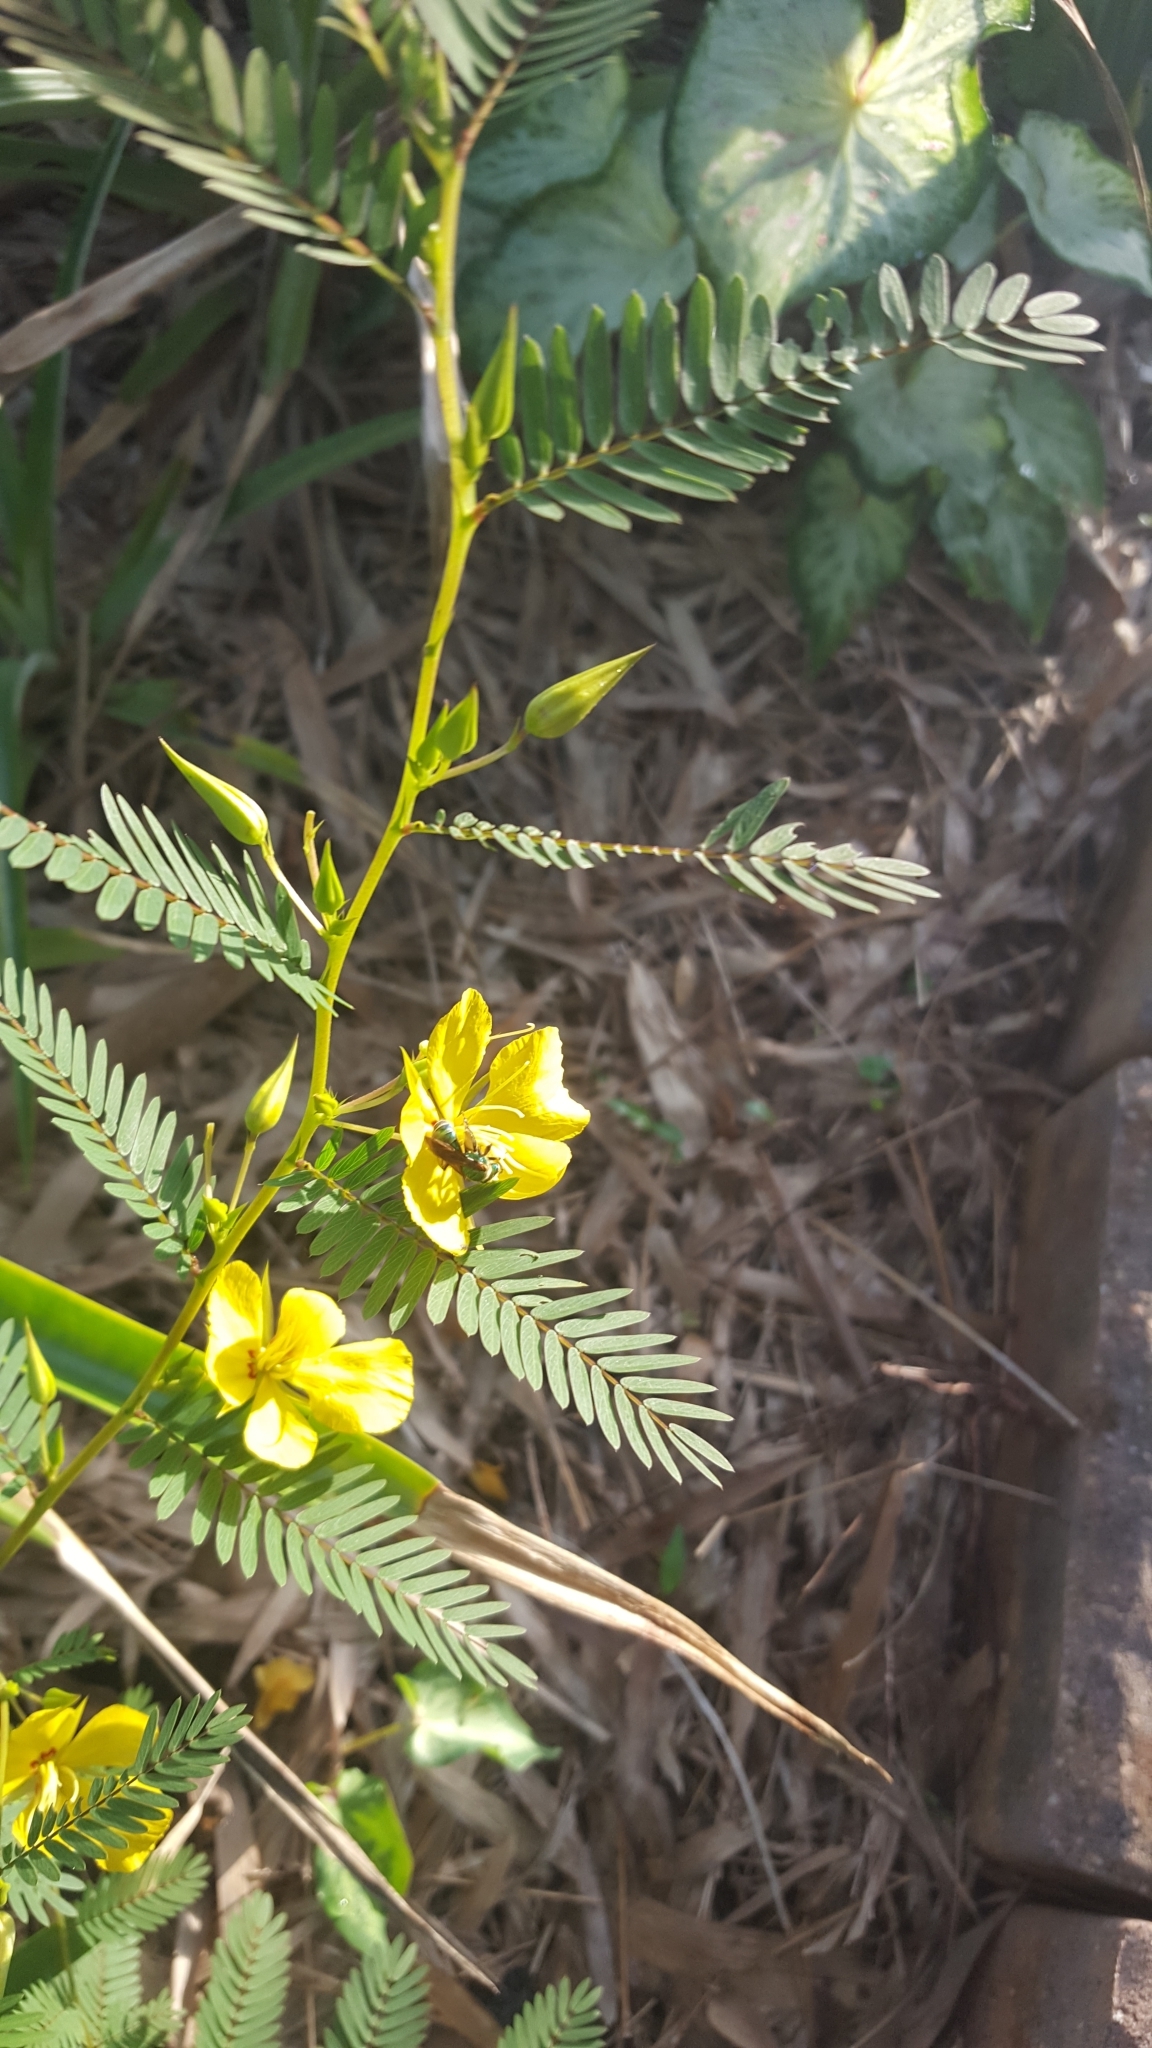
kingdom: Animalia
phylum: Arthropoda
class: Insecta
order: Hymenoptera
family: Halictidae
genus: Agapostemon
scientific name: Agapostemon splendens
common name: Brown-winged striped sweat bee
